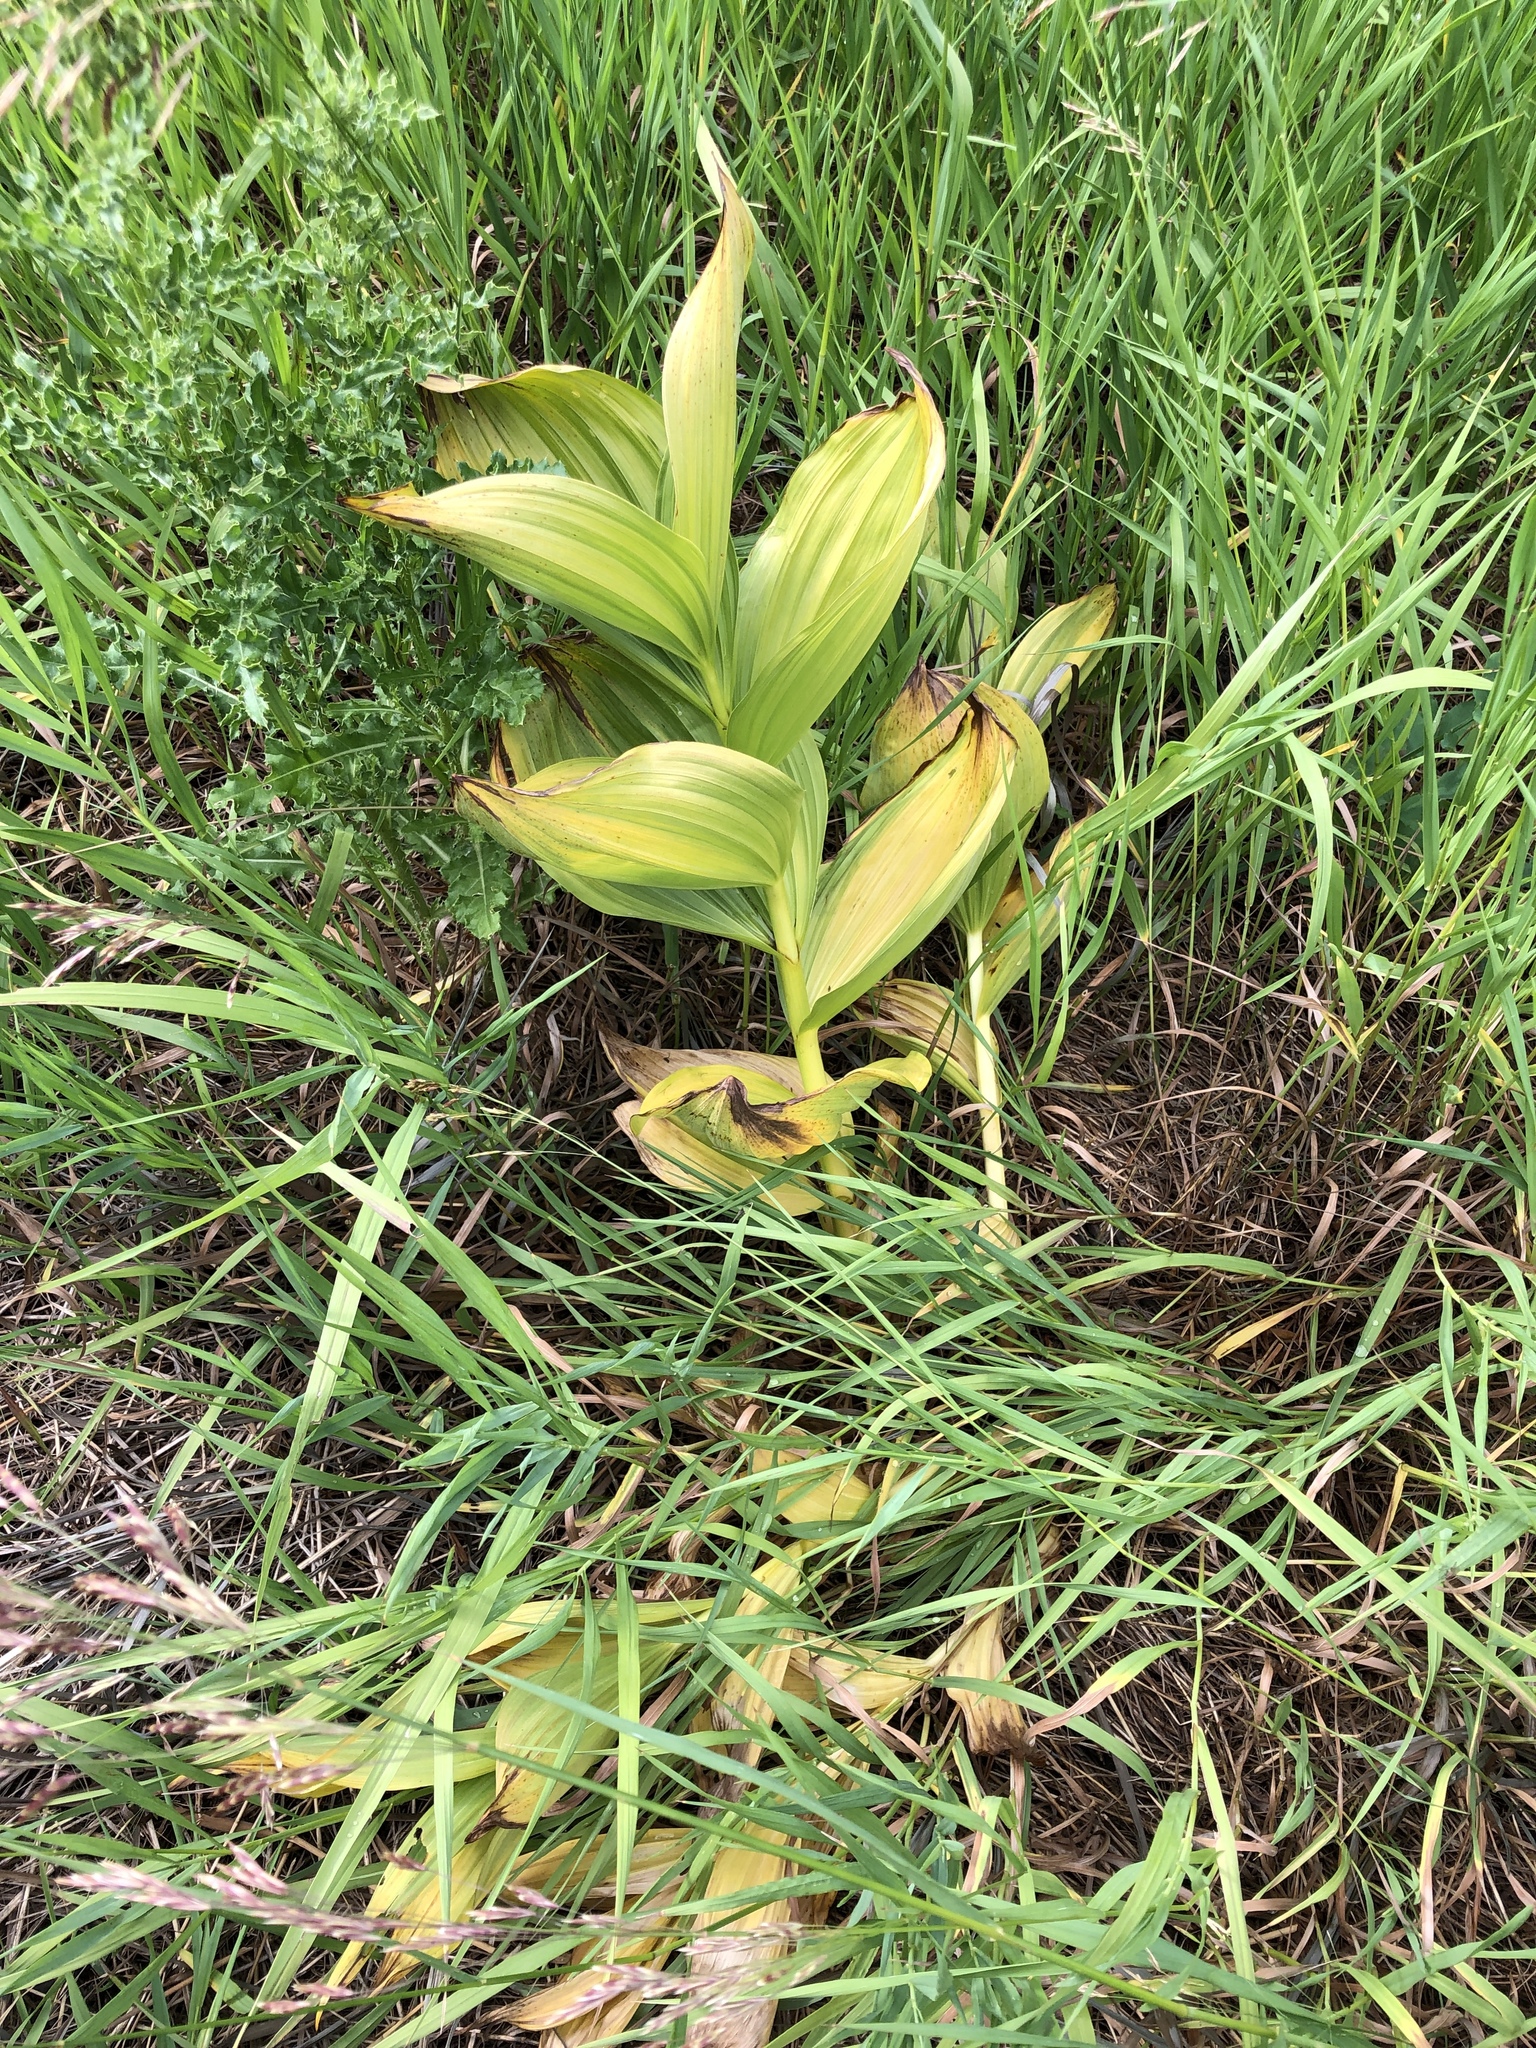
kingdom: Plantae
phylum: Tracheophyta
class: Liliopsida
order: Liliales
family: Melanthiaceae
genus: Veratrum
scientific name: Veratrum californicum
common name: California veratrum
